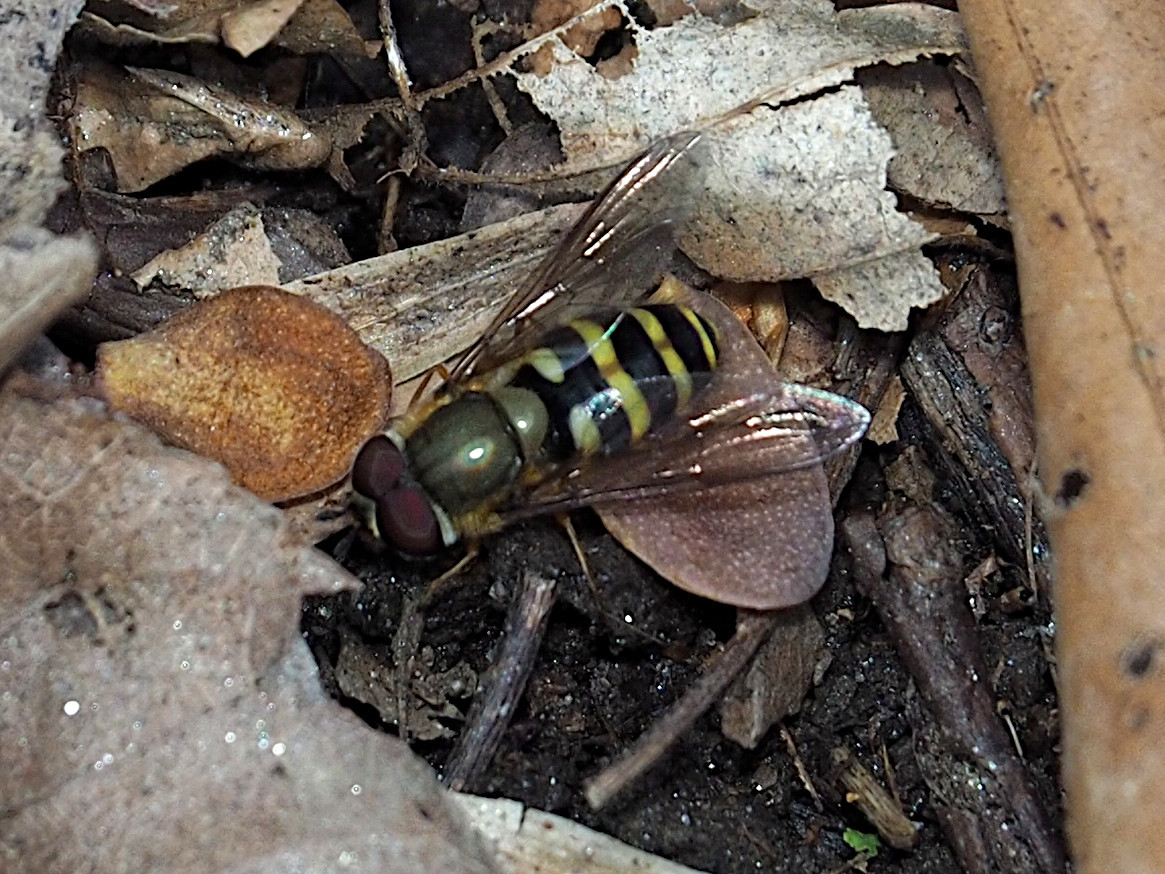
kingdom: Animalia
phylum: Arthropoda
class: Insecta
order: Diptera
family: Syrphidae
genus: Syrphus
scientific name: Syrphus
